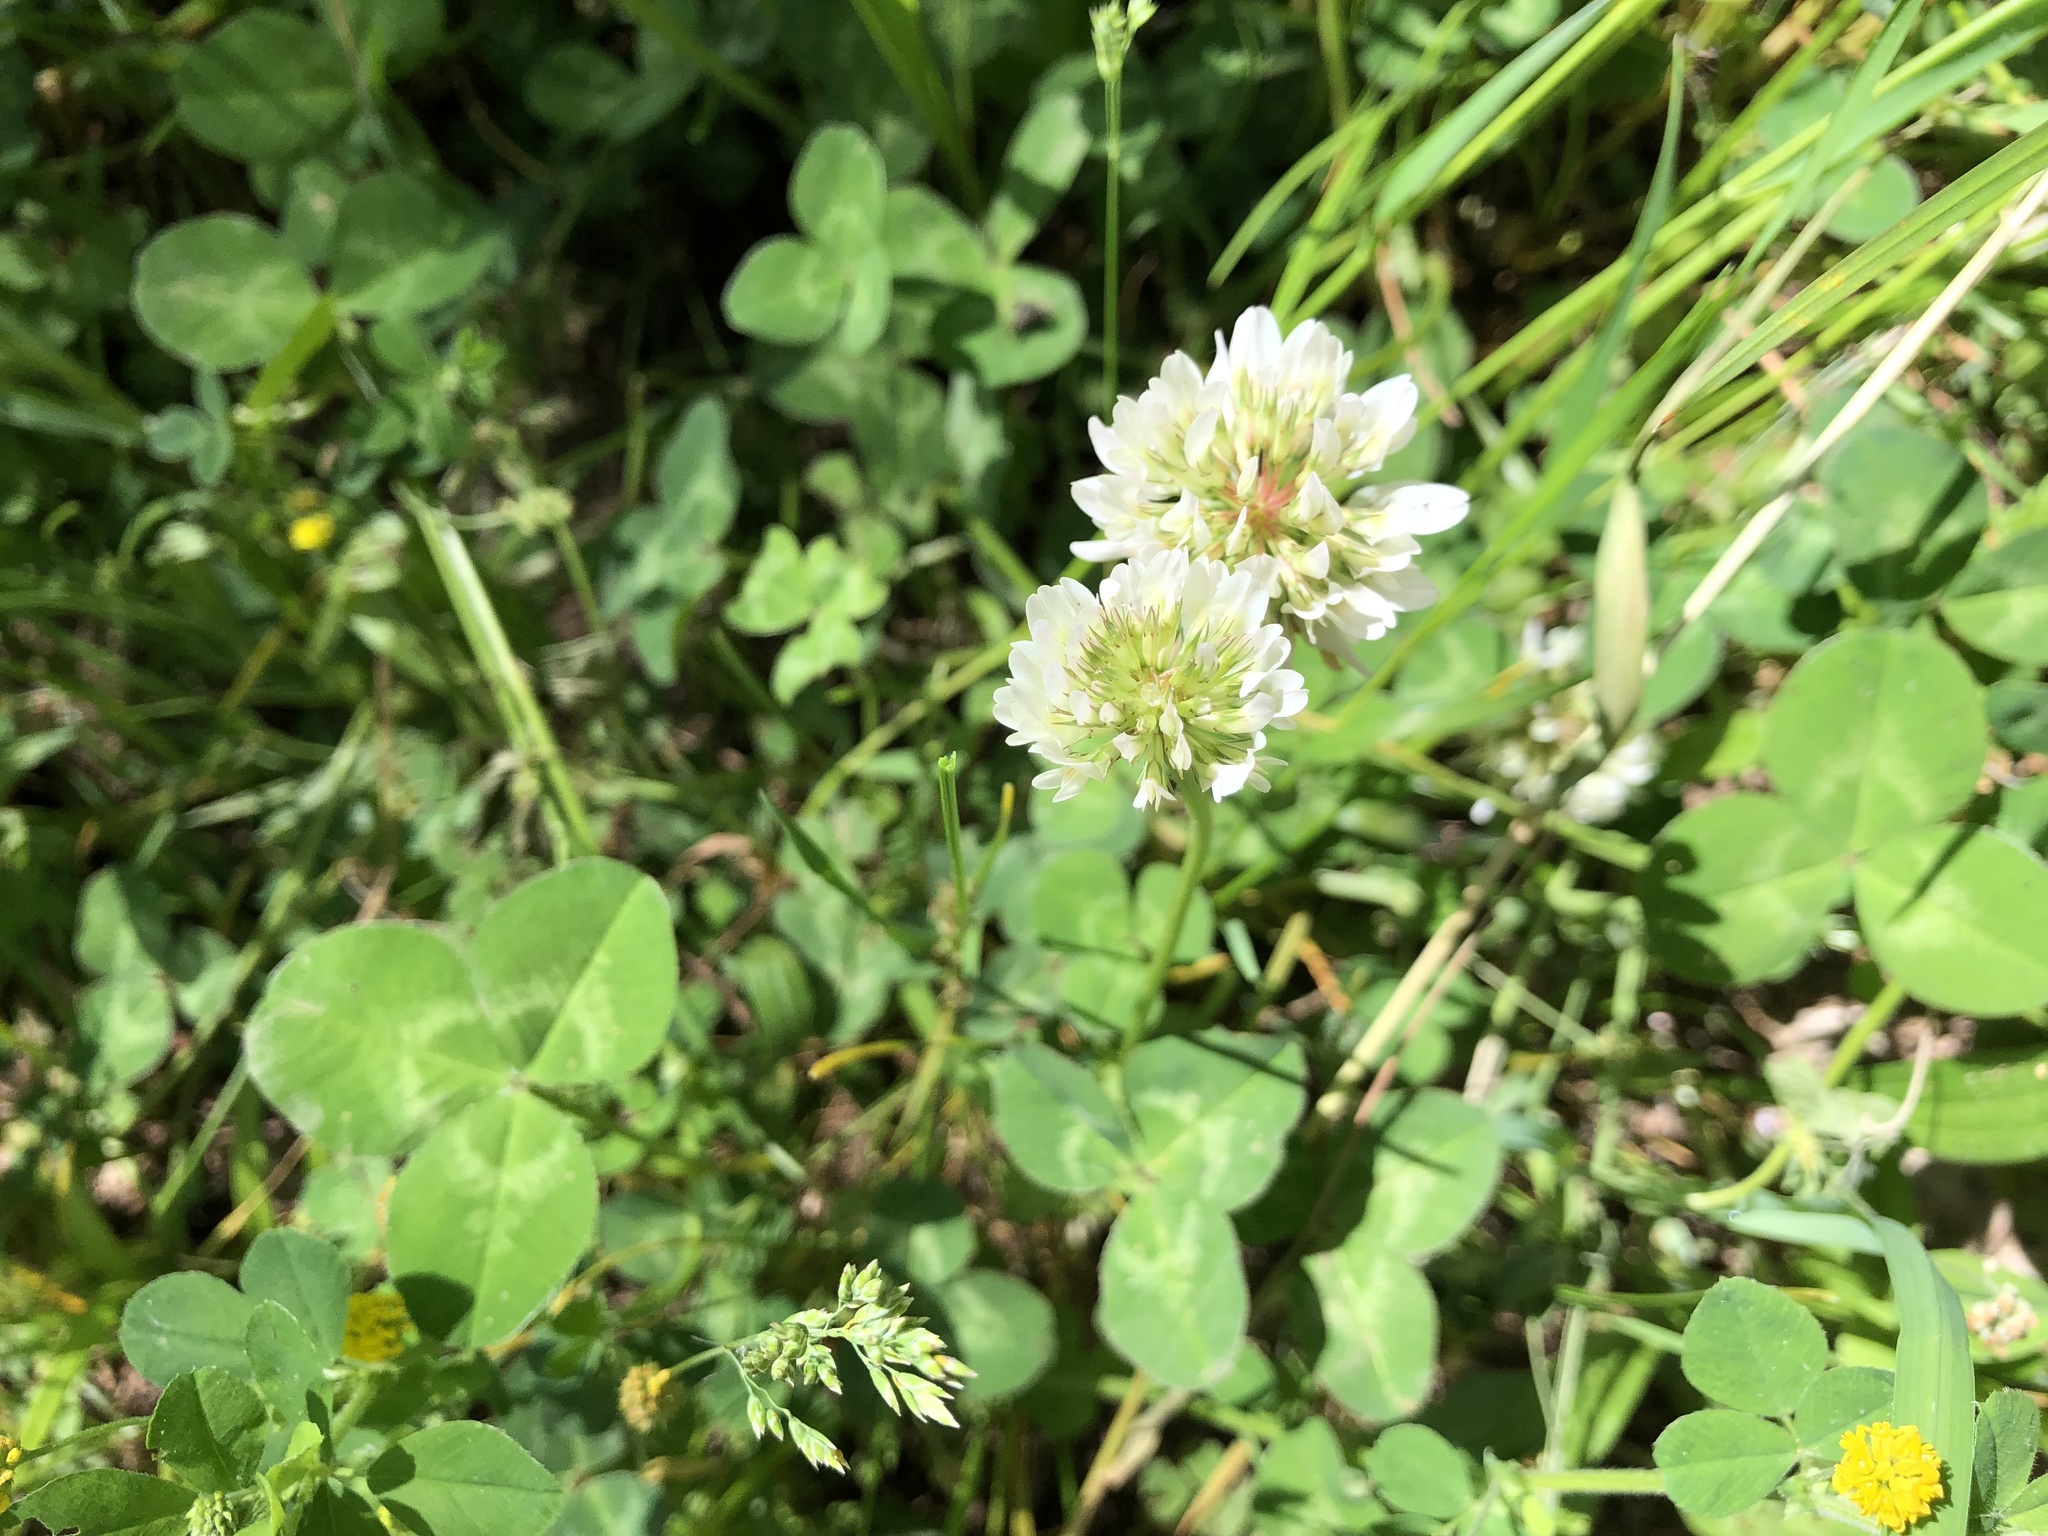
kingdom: Plantae
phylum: Tracheophyta
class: Magnoliopsida
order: Fabales
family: Fabaceae
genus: Trifolium
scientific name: Trifolium repens
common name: White clover
